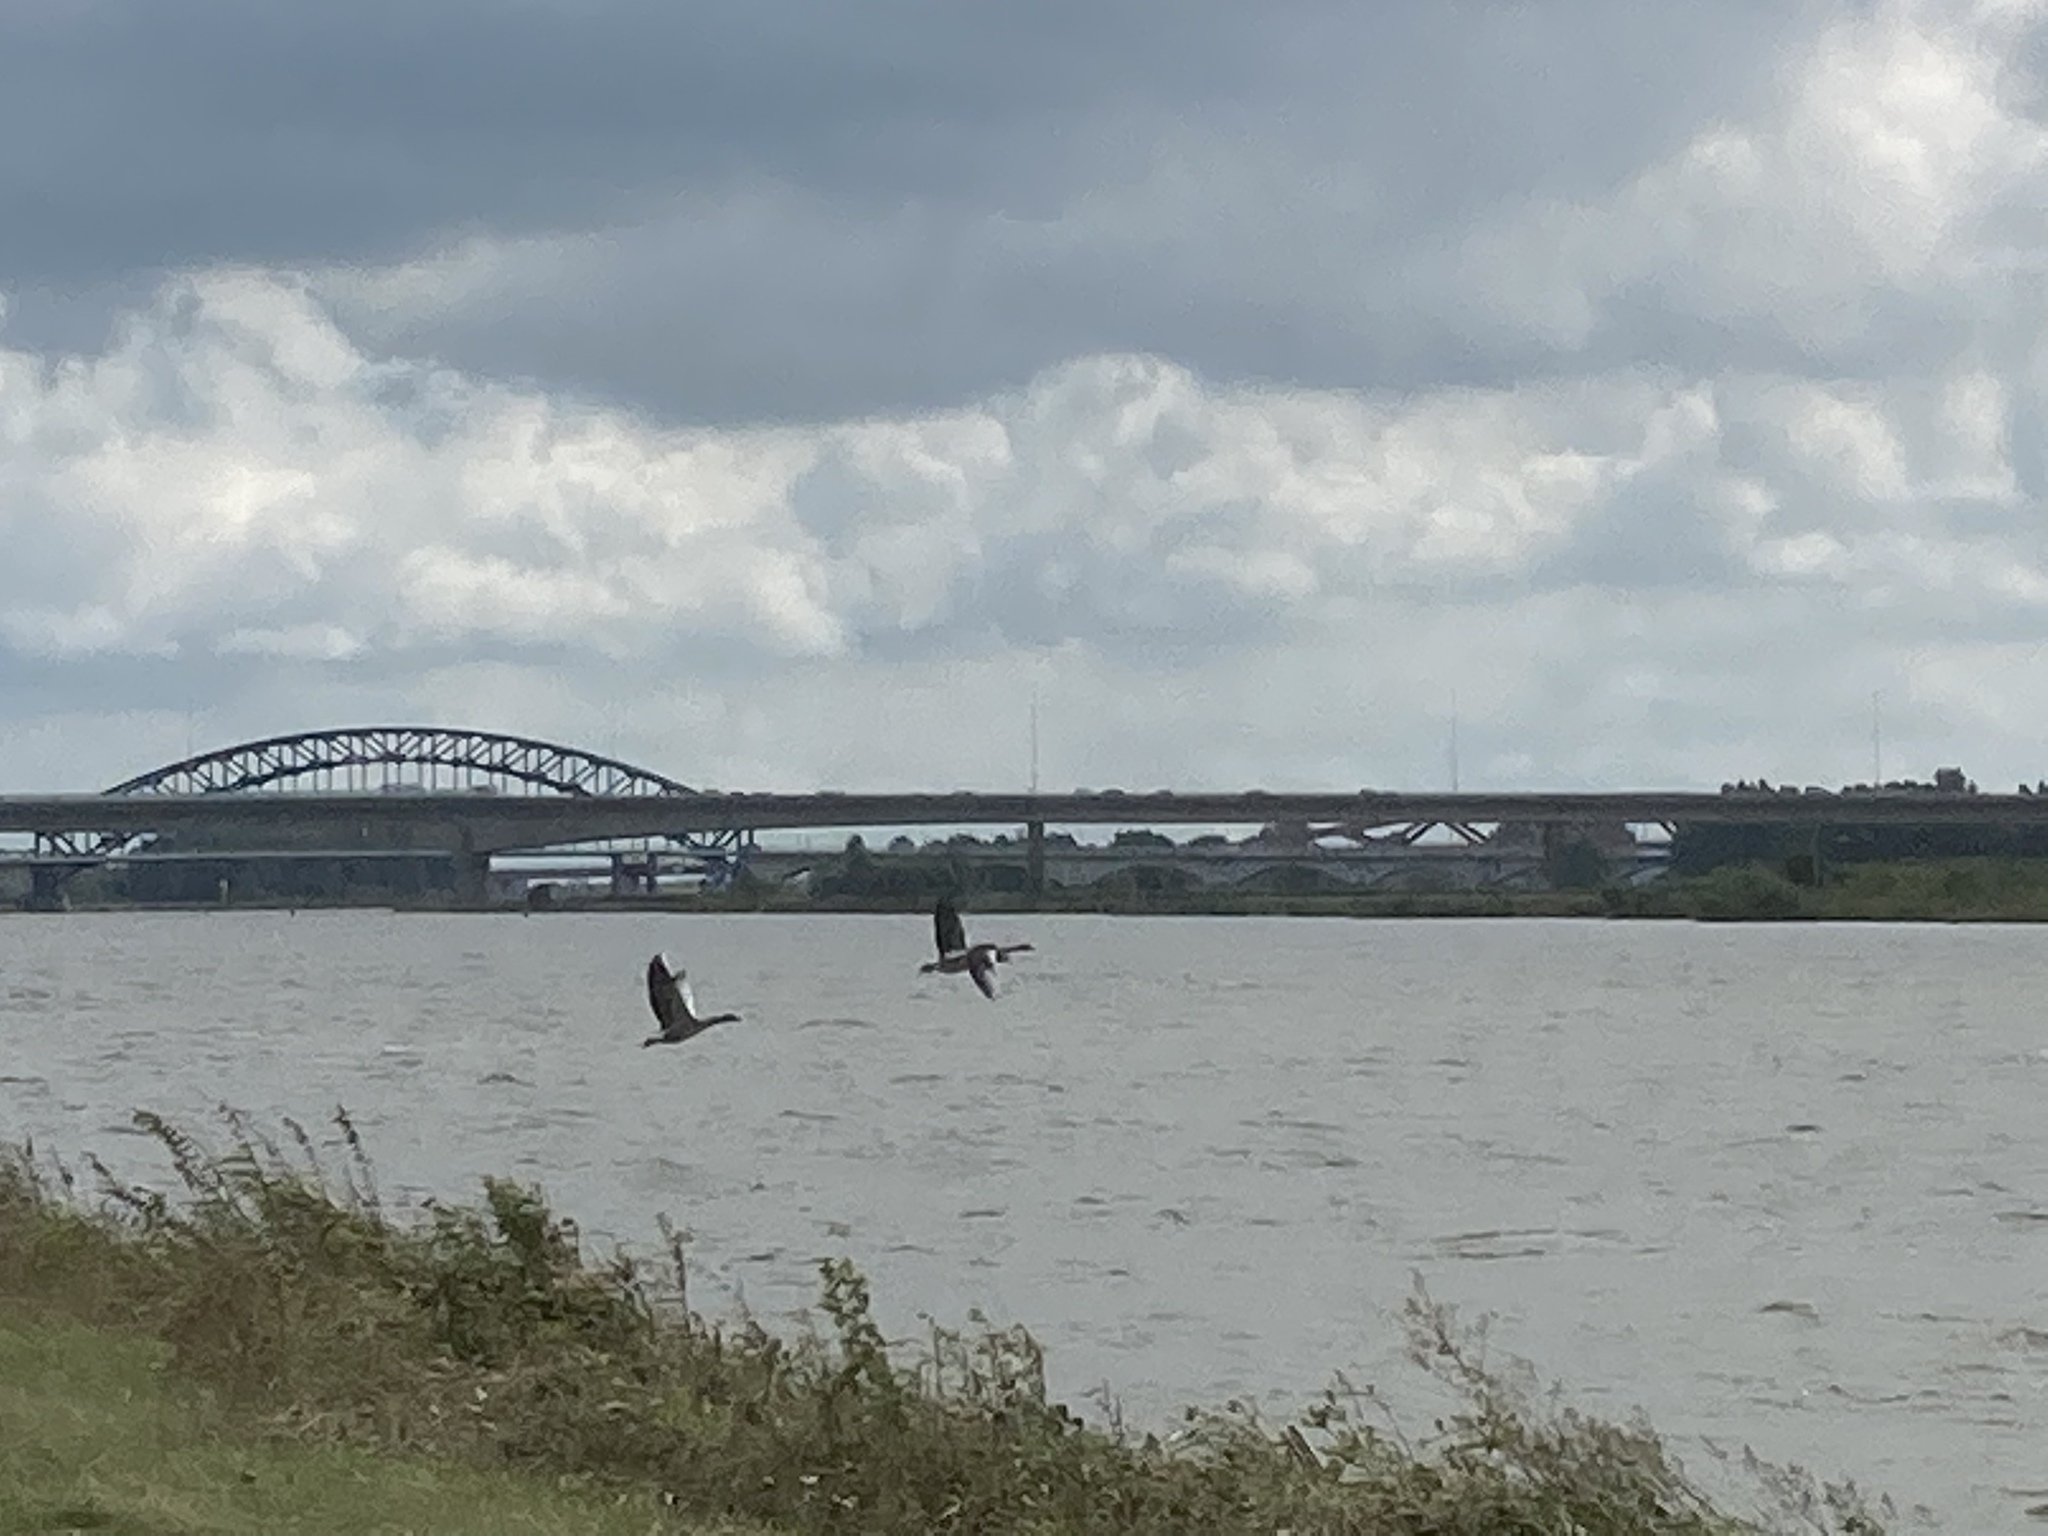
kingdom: Animalia
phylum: Chordata
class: Aves
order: Anseriformes
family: Anatidae
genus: Anser
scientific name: Anser anser
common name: Greylag goose
